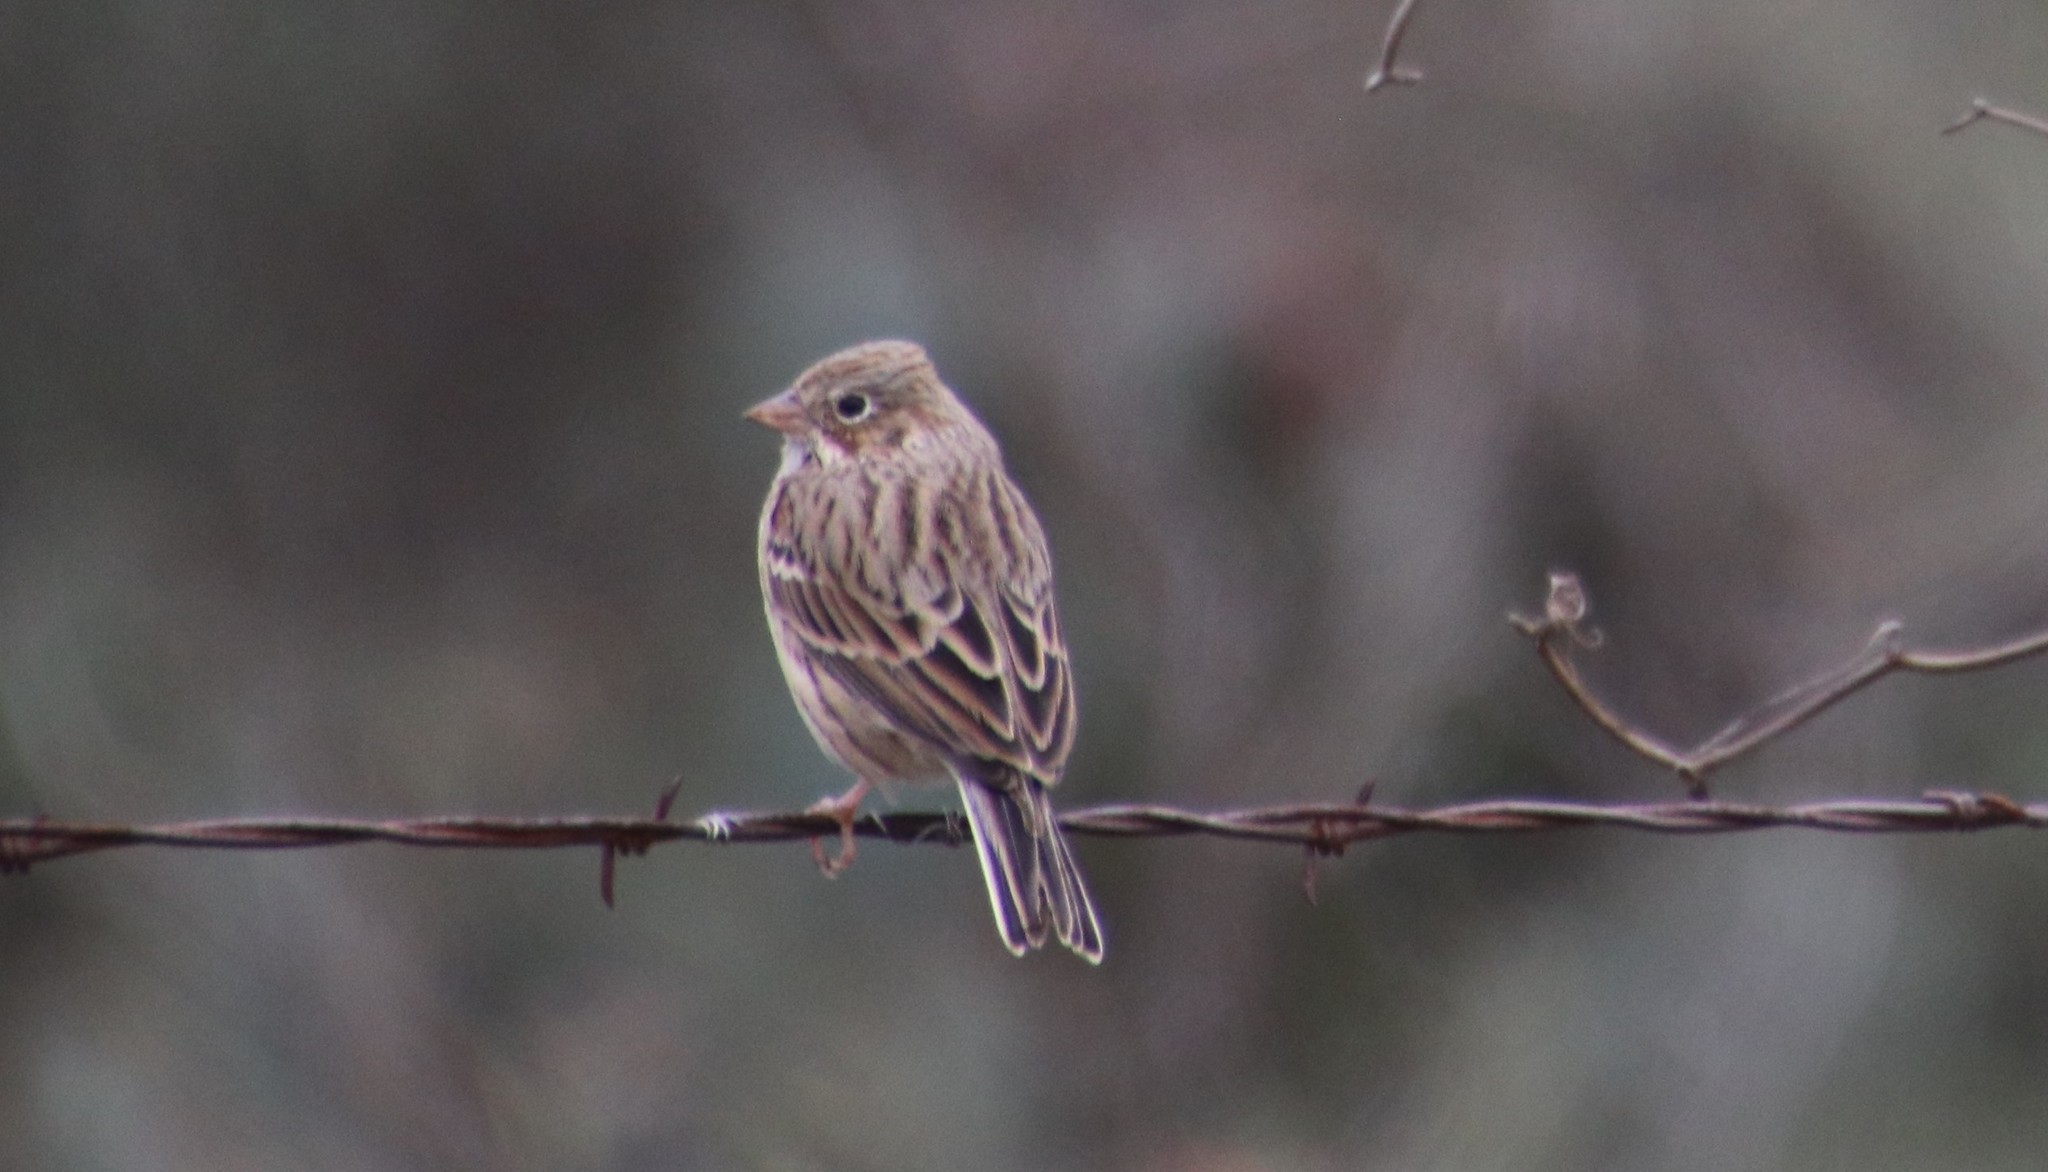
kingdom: Animalia
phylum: Chordata
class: Aves
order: Passeriformes
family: Passerellidae
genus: Pooecetes
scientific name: Pooecetes gramineus
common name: Vesper sparrow
